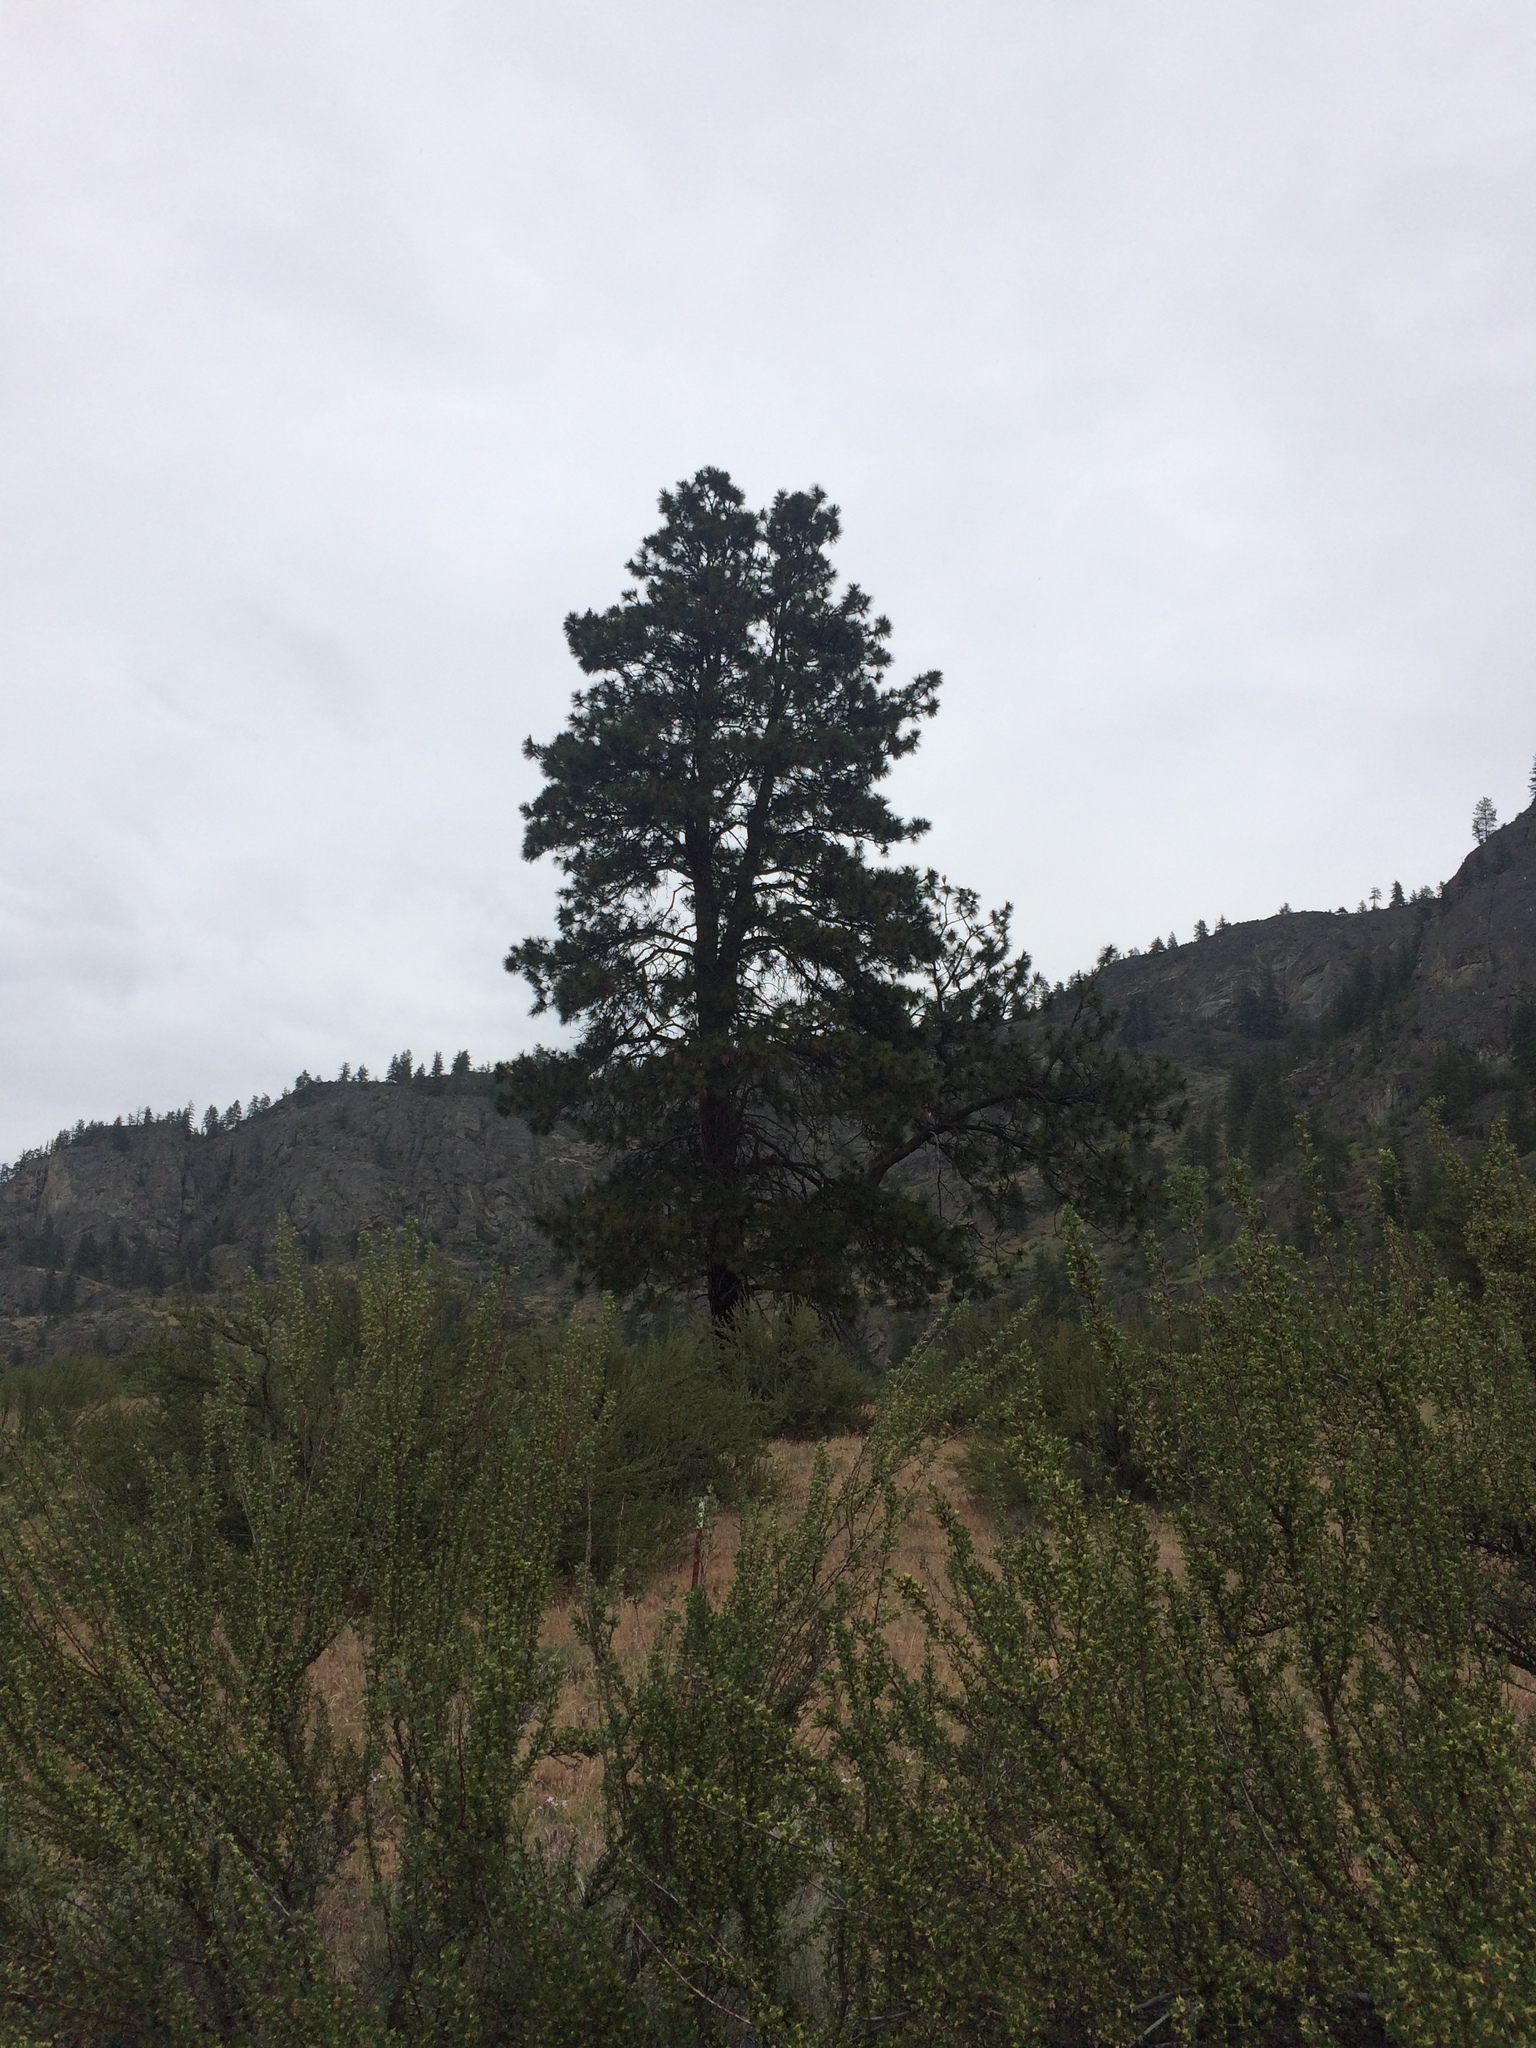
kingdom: Plantae
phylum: Tracheophyta
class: Pinopsida
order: Pinales
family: Pinaceae
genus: Pinus
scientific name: Pinus ponderosa
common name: Western yellow-pine
